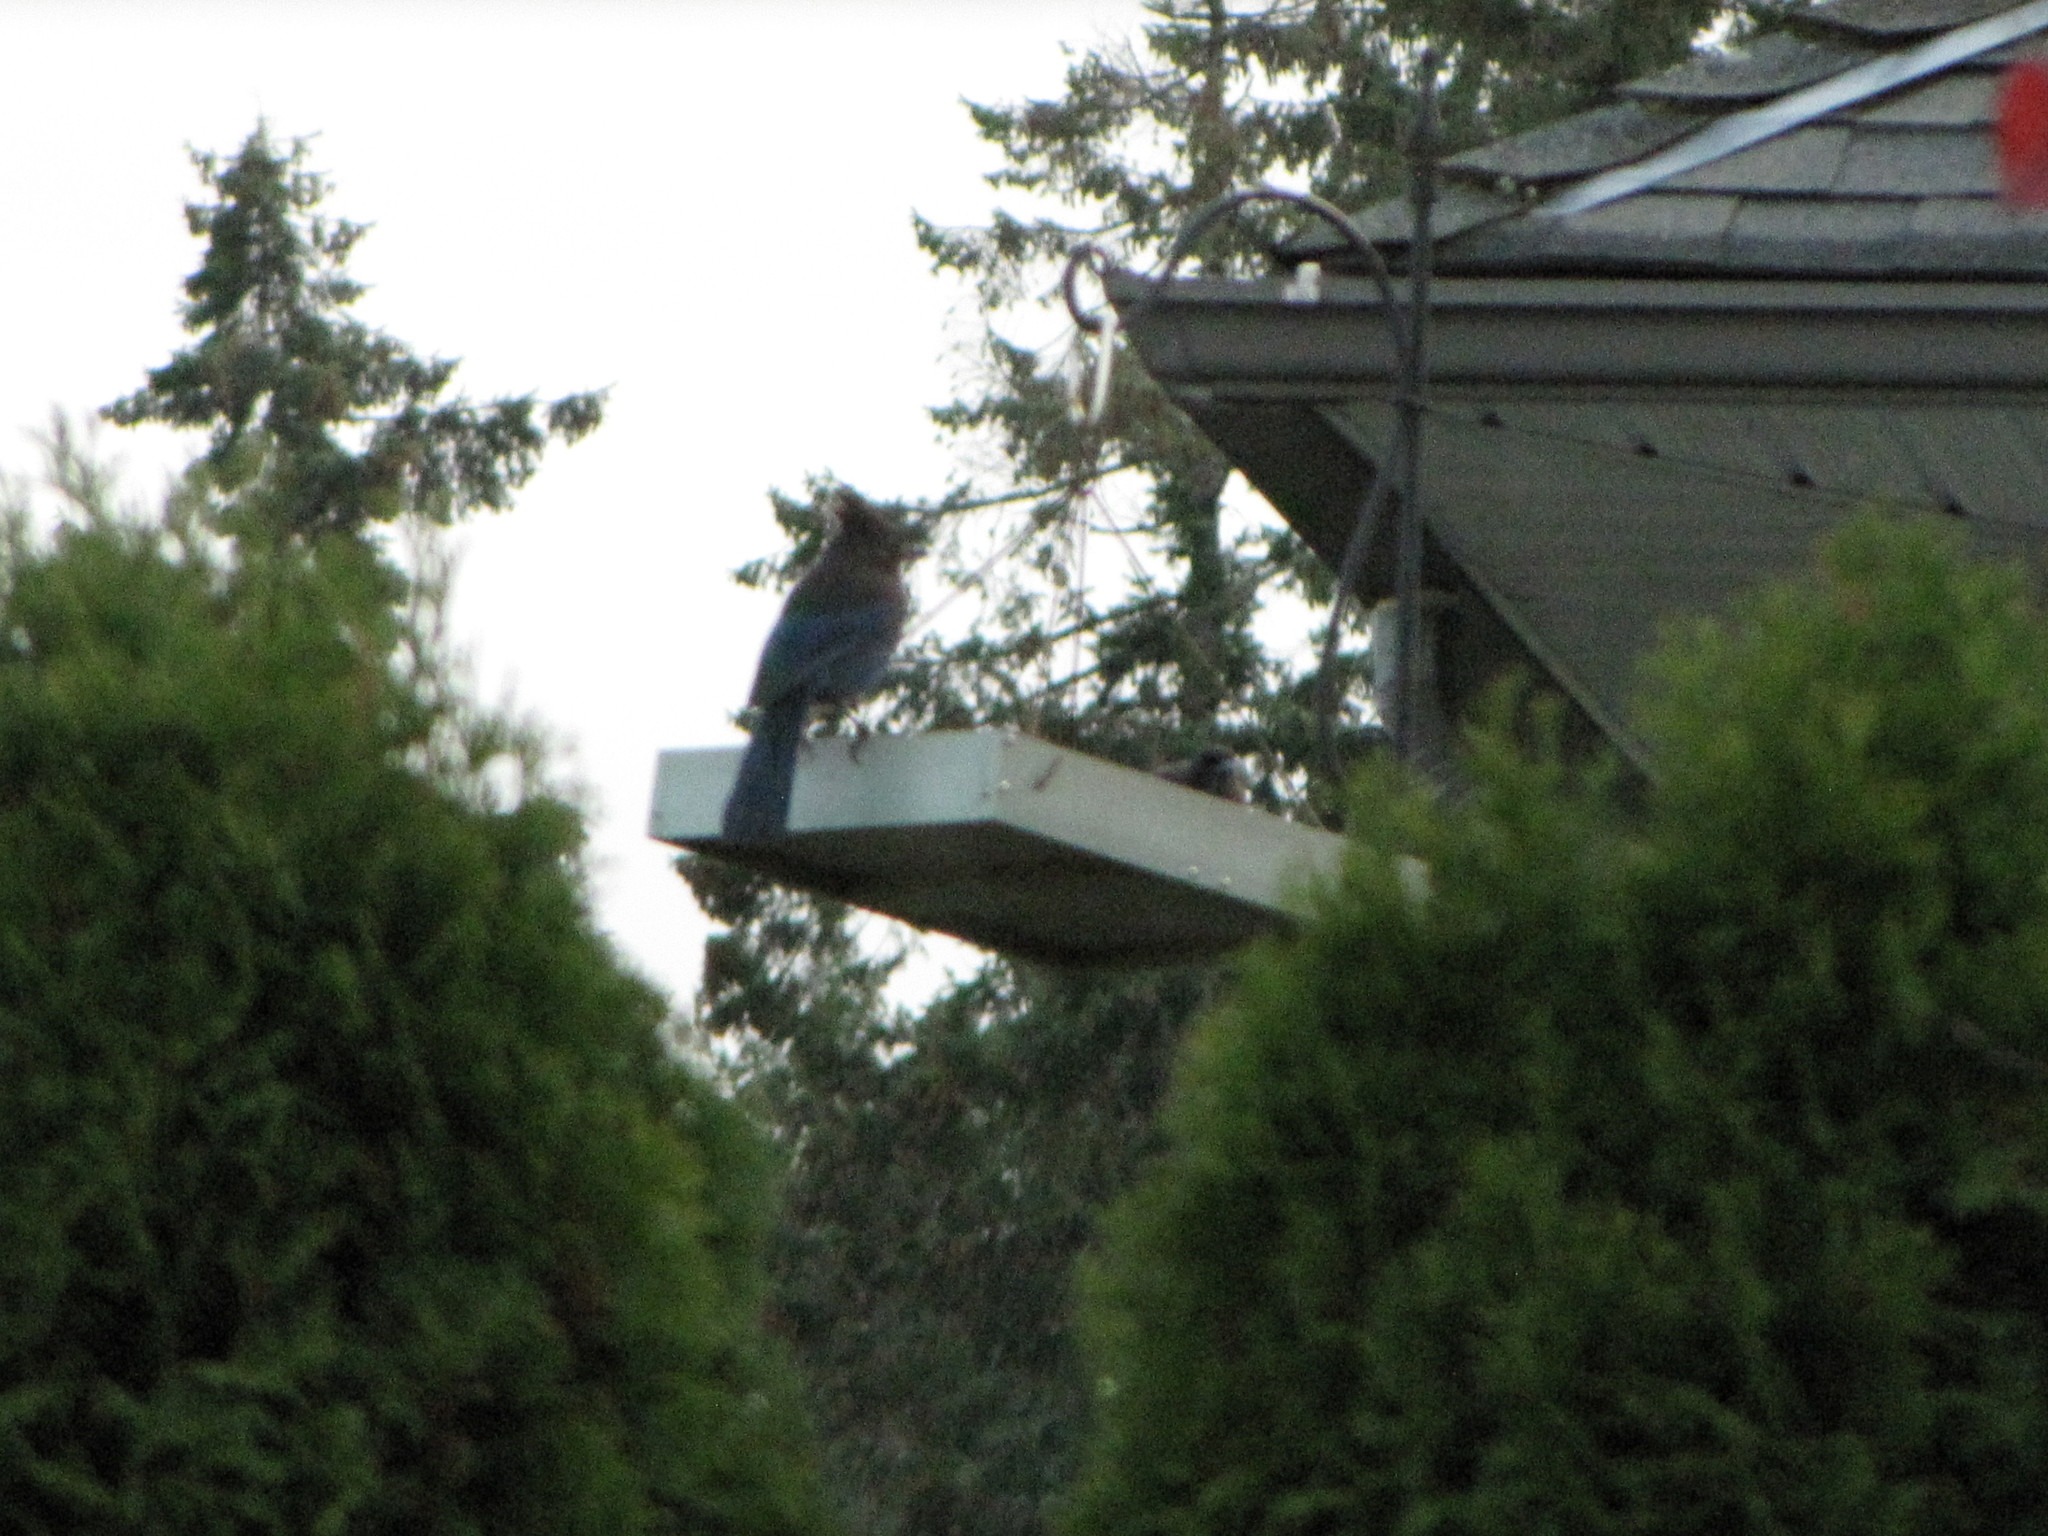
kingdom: Animalia
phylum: Chordata
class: Aves
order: Passeriformes
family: Corvidae
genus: Cyanocitta
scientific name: Cyanocitta stelleri
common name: Steller's jay
